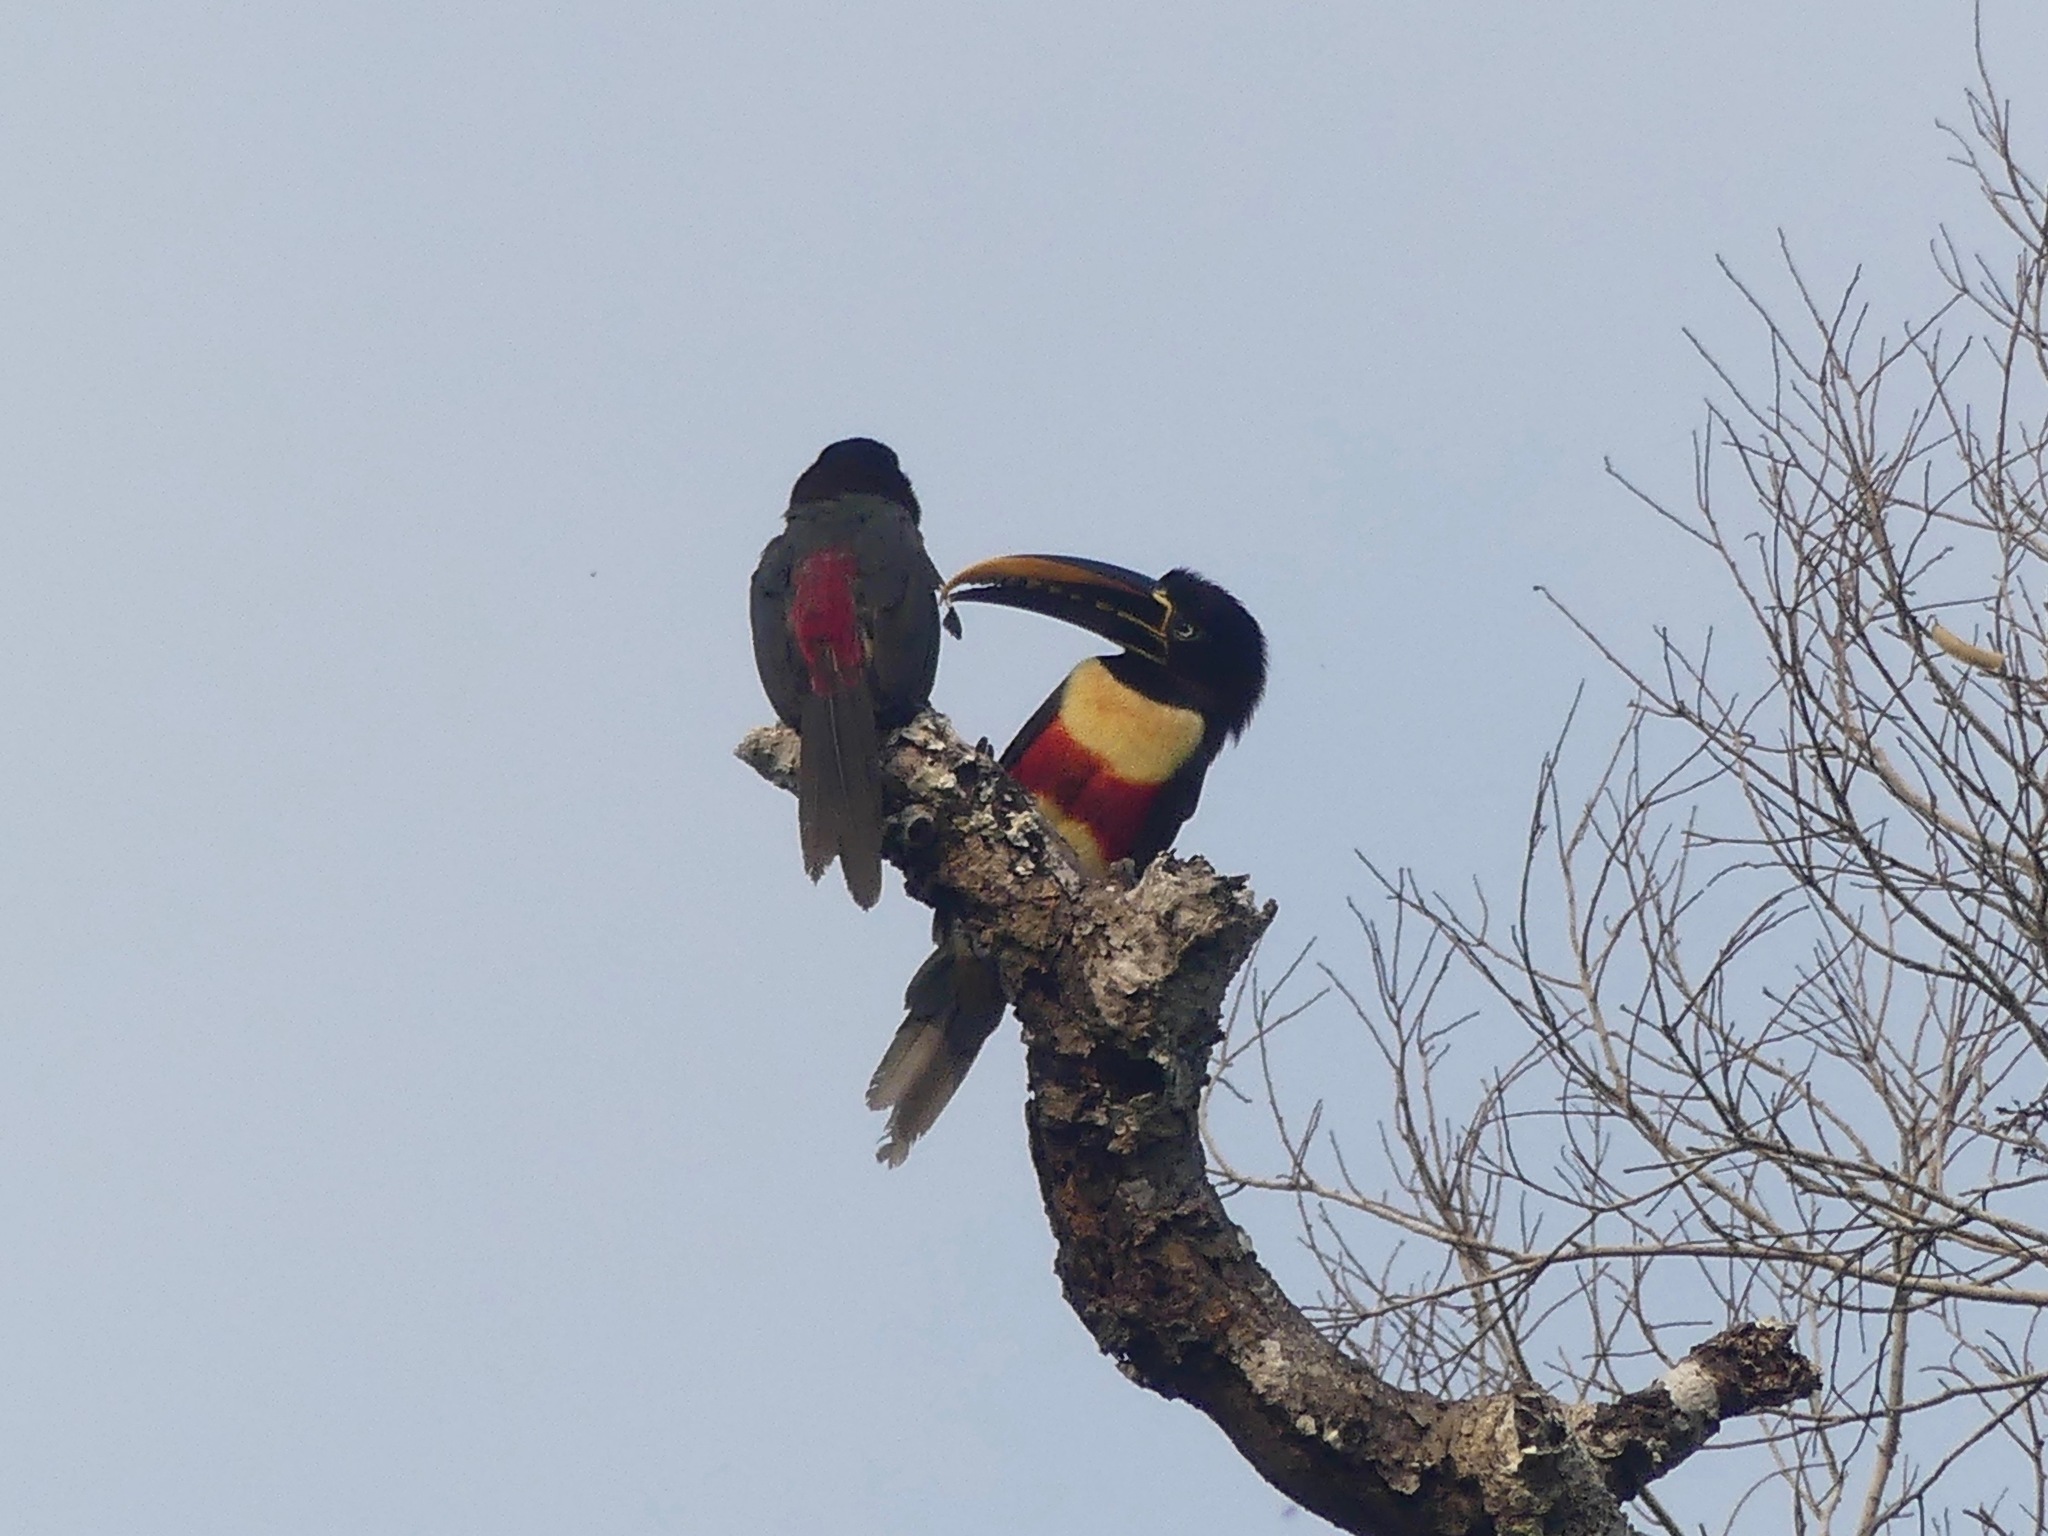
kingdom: Animalia
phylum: Chordata
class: Aves
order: Piciformes
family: Ramphastidae
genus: Pteroglossus
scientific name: Pteroglossus castanotis
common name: Chestnut-eared aracari
